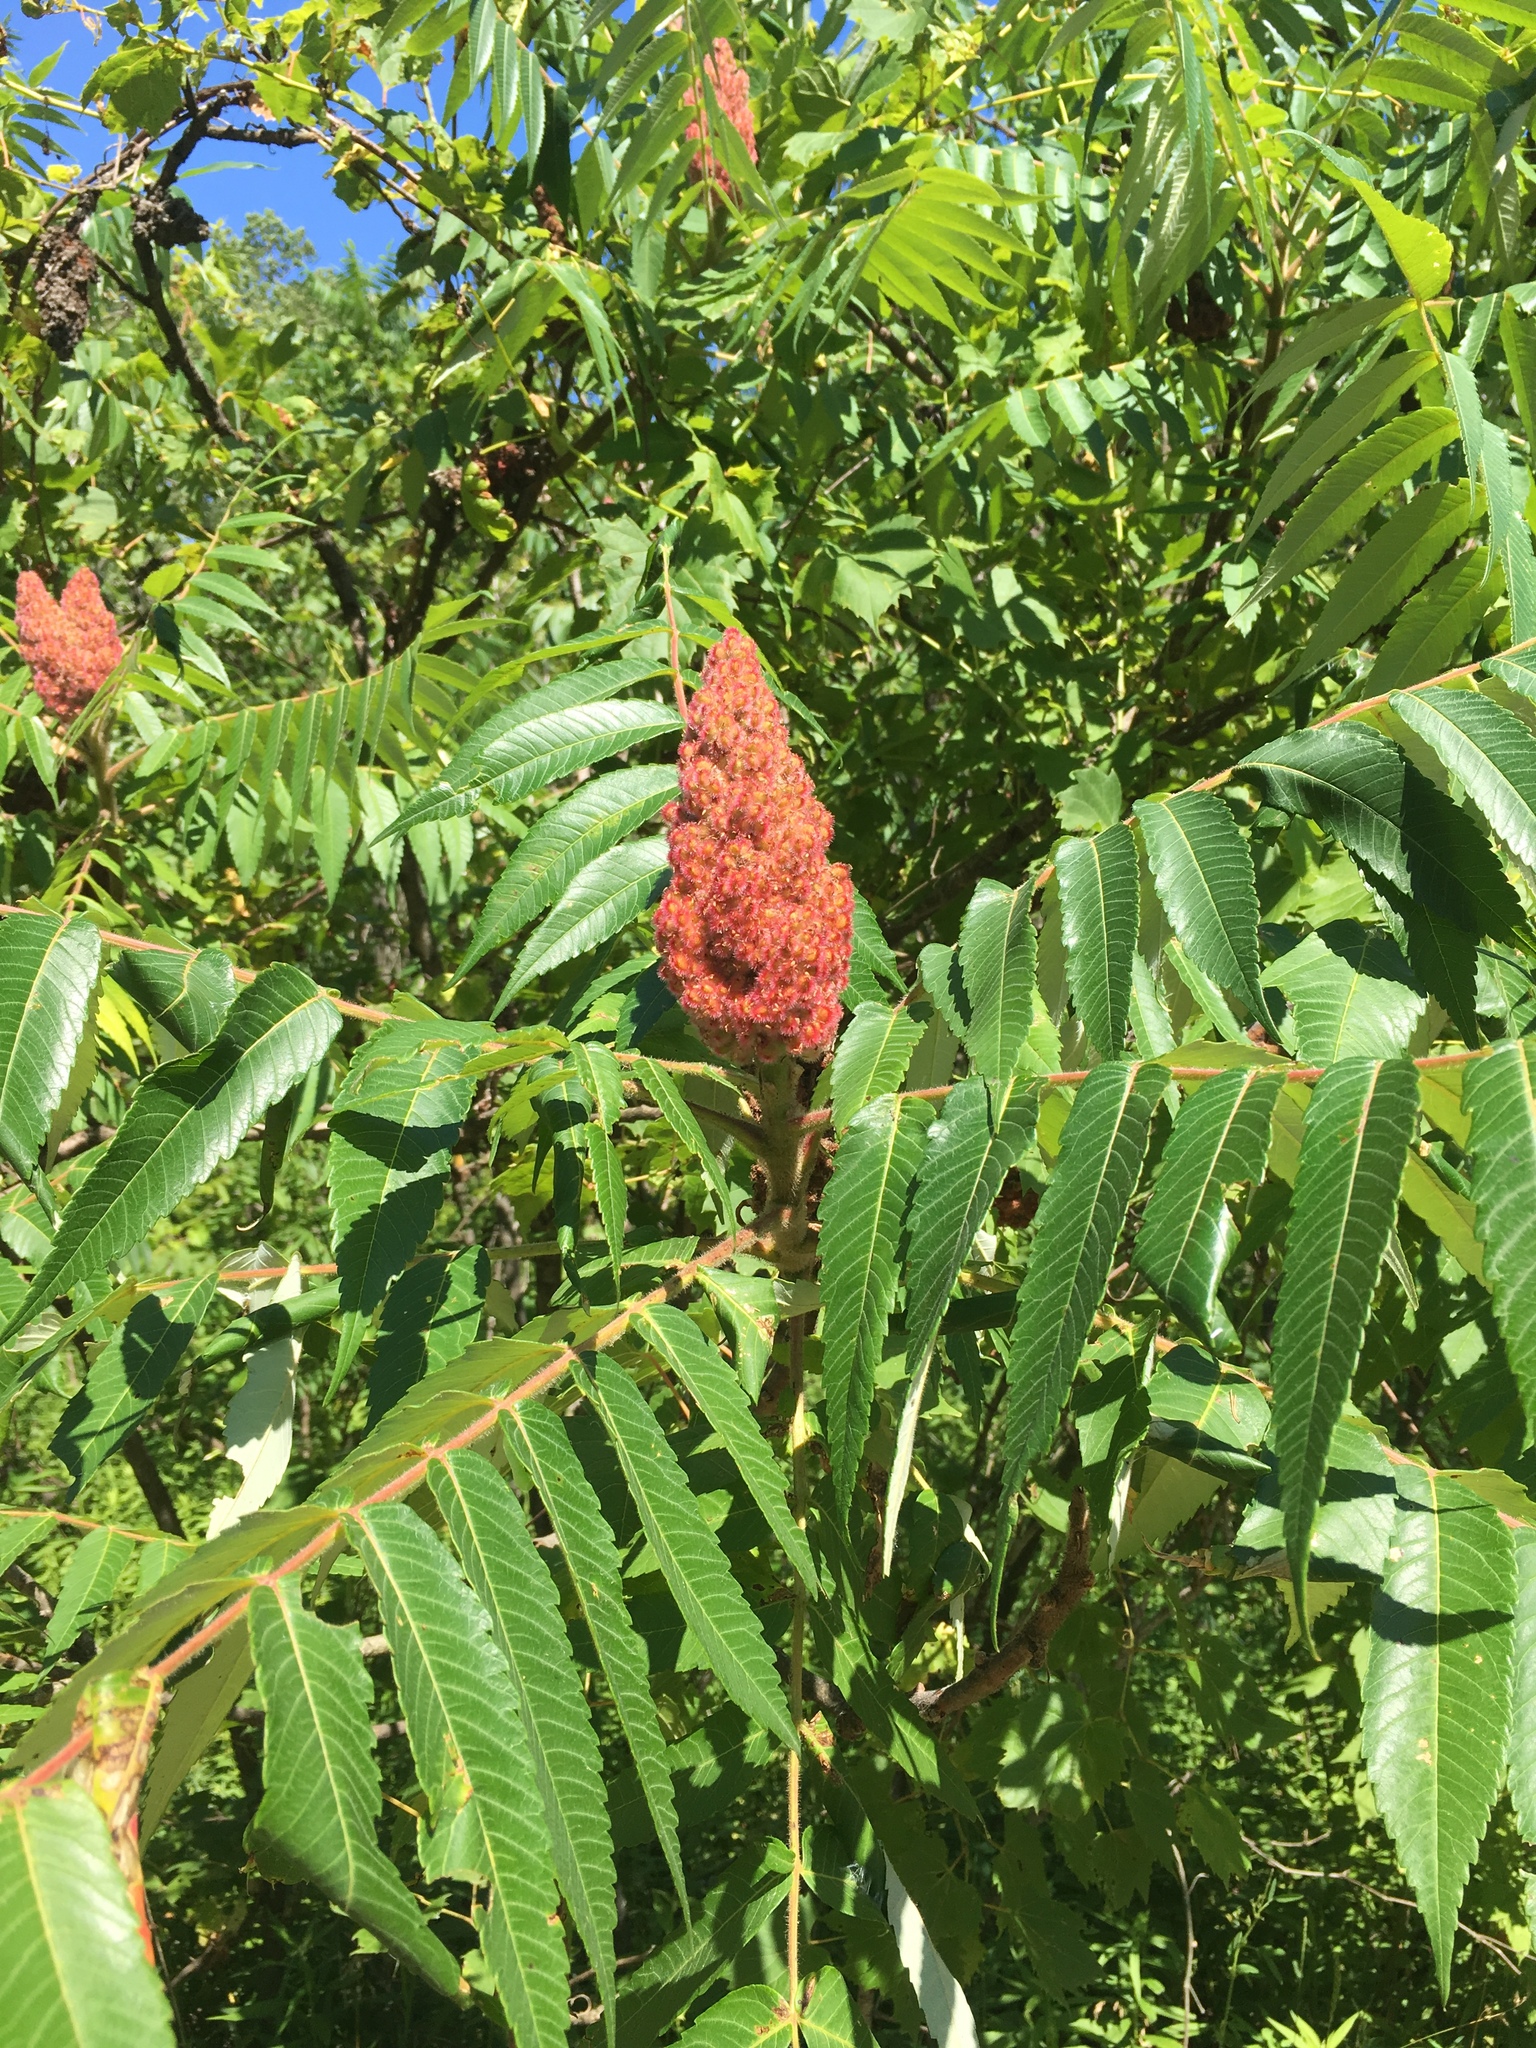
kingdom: Plantae
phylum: Tracheophyta
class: Magnoliopsida
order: Sapindales
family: Anacardiaceae
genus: Rhus
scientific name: Rhus typhina
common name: Staghorn sumac
